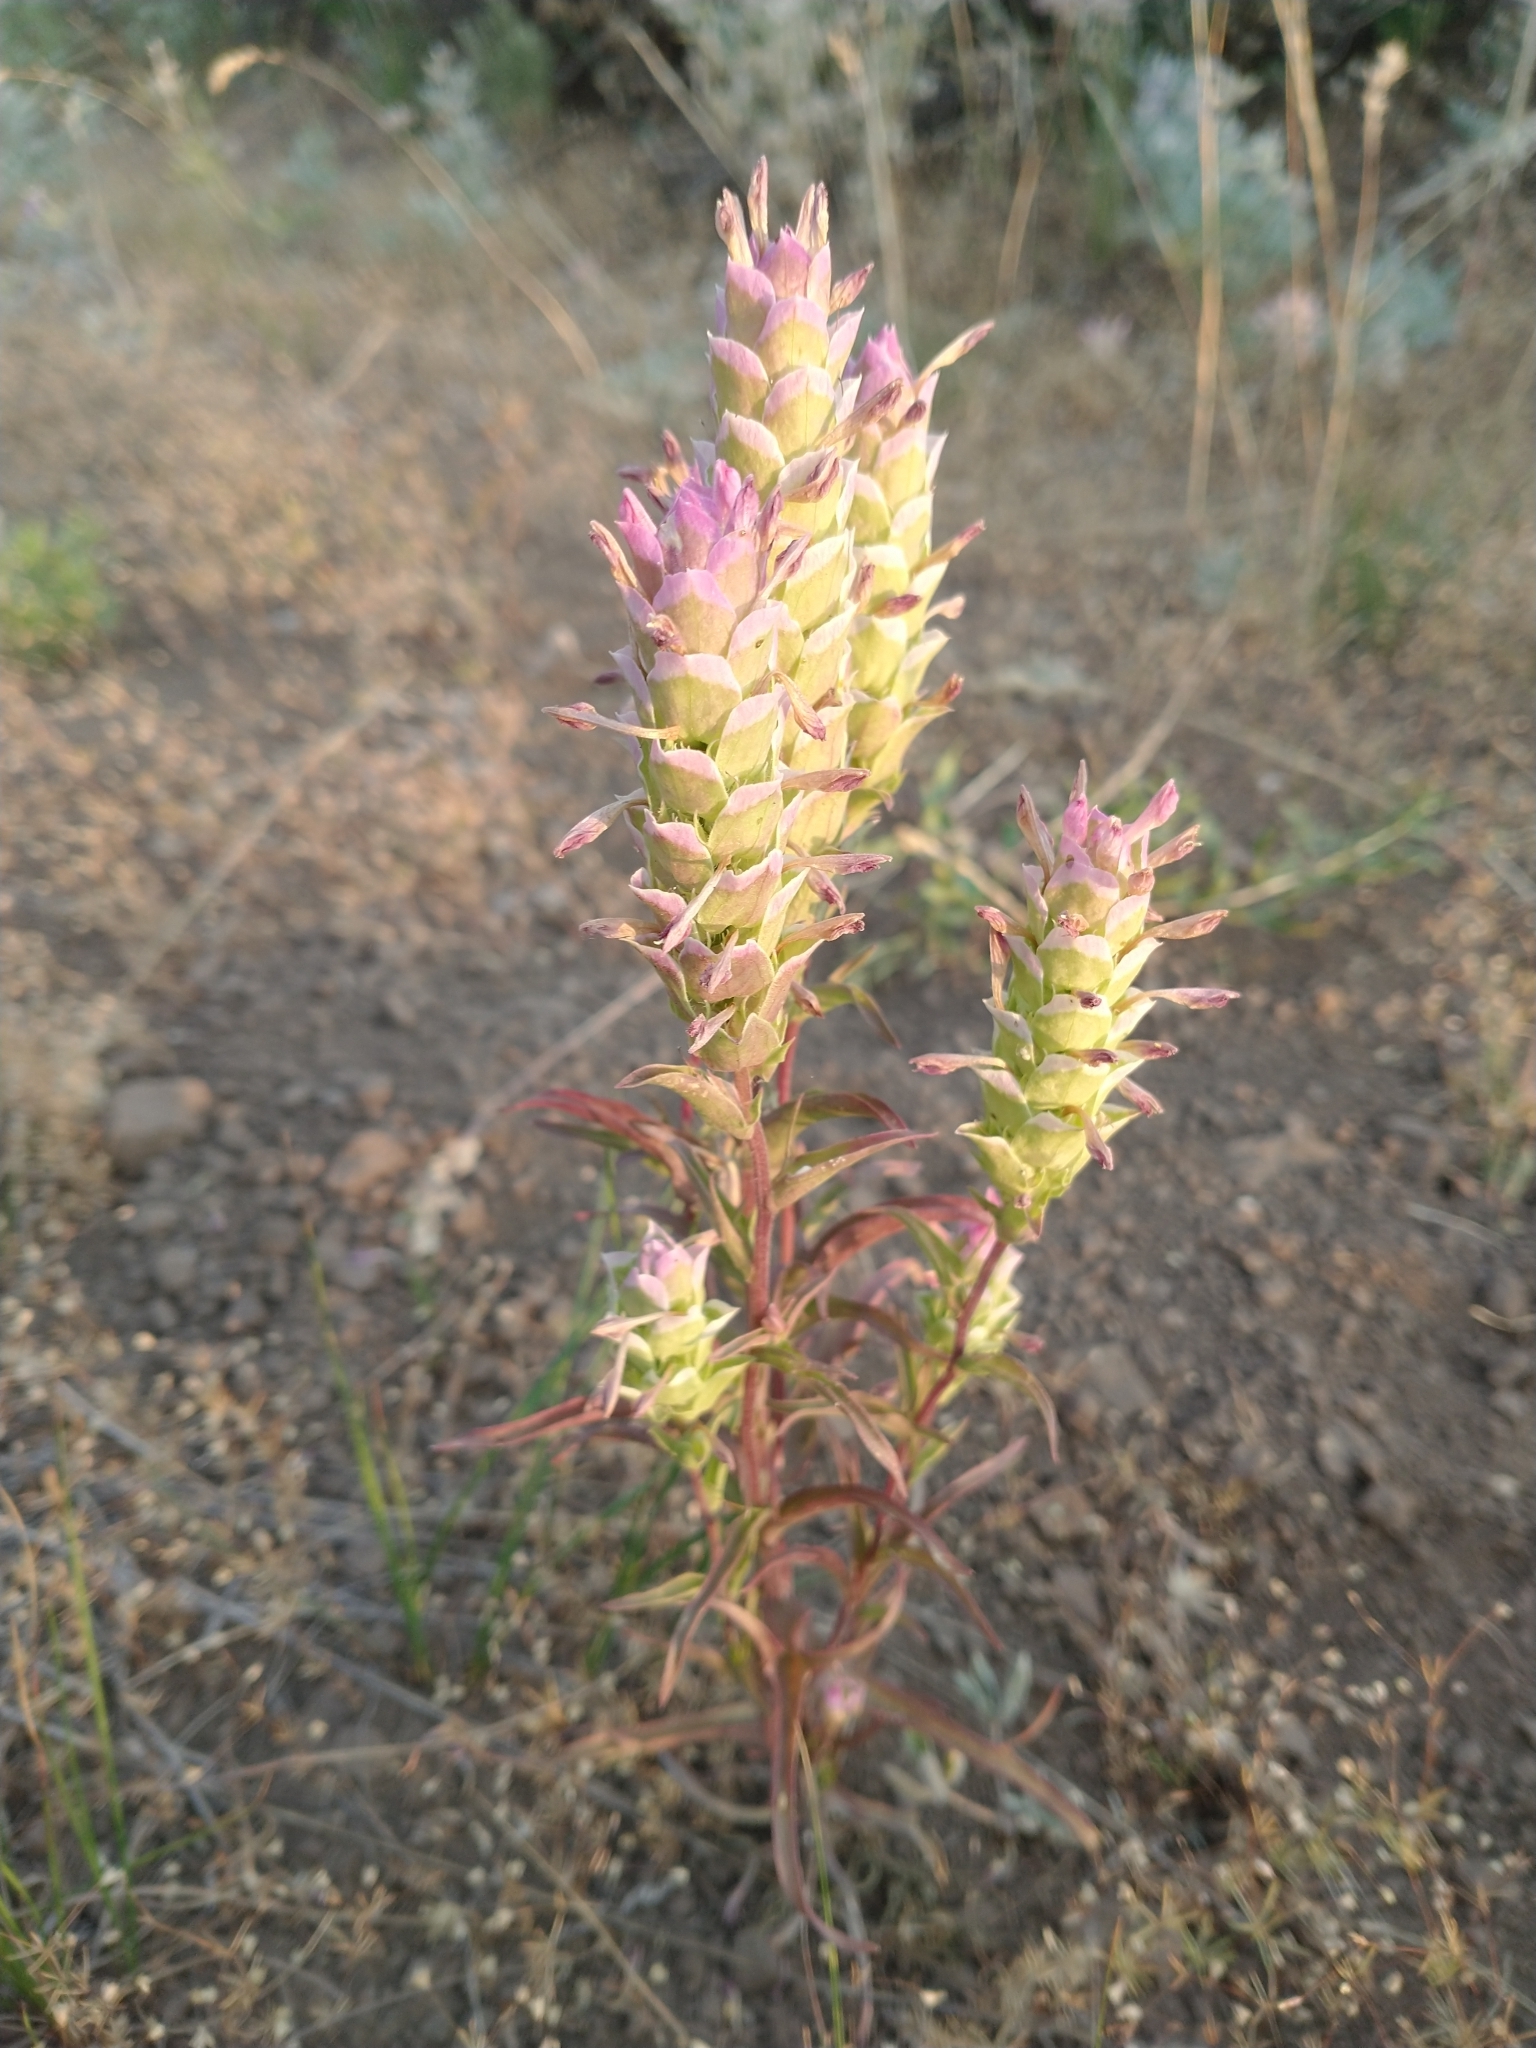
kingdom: Plantae
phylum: Tracheophyta
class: Magnoliopsida
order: Lamiales
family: Orobanchaceae
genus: Orthocarpus
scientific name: Orthocarpus cuspidatus
